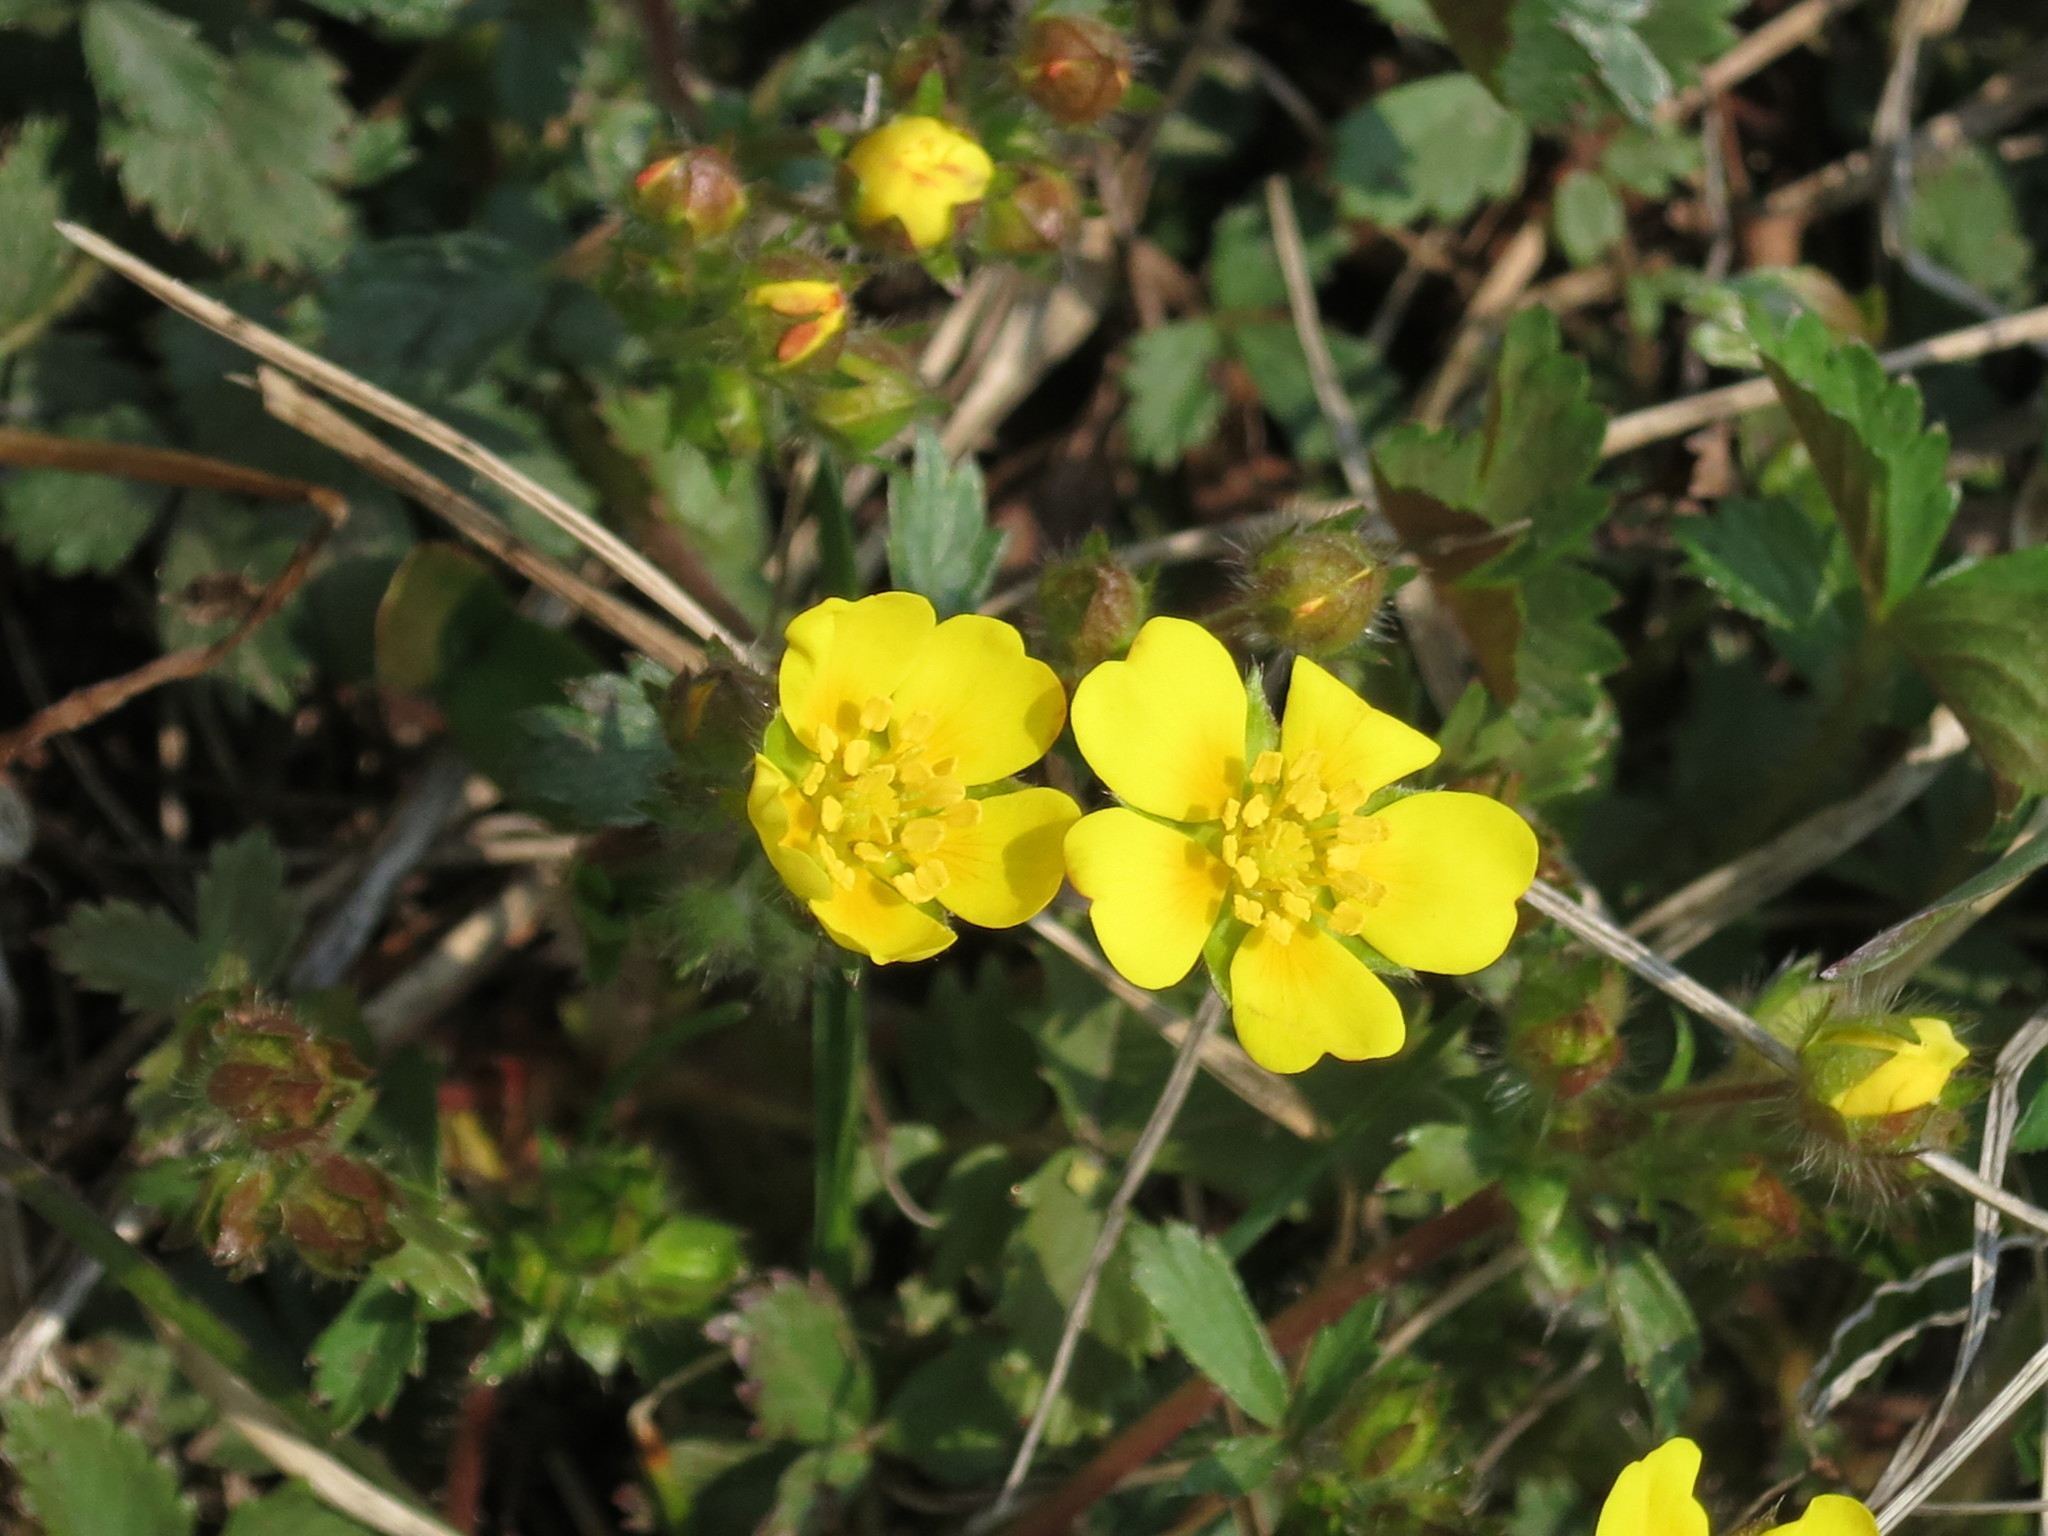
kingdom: Plantae
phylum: Tracheophyta
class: Magnoliopsida
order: Rosales
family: Rosaceae
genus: Potentilla
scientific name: Potentilla fragarioides
